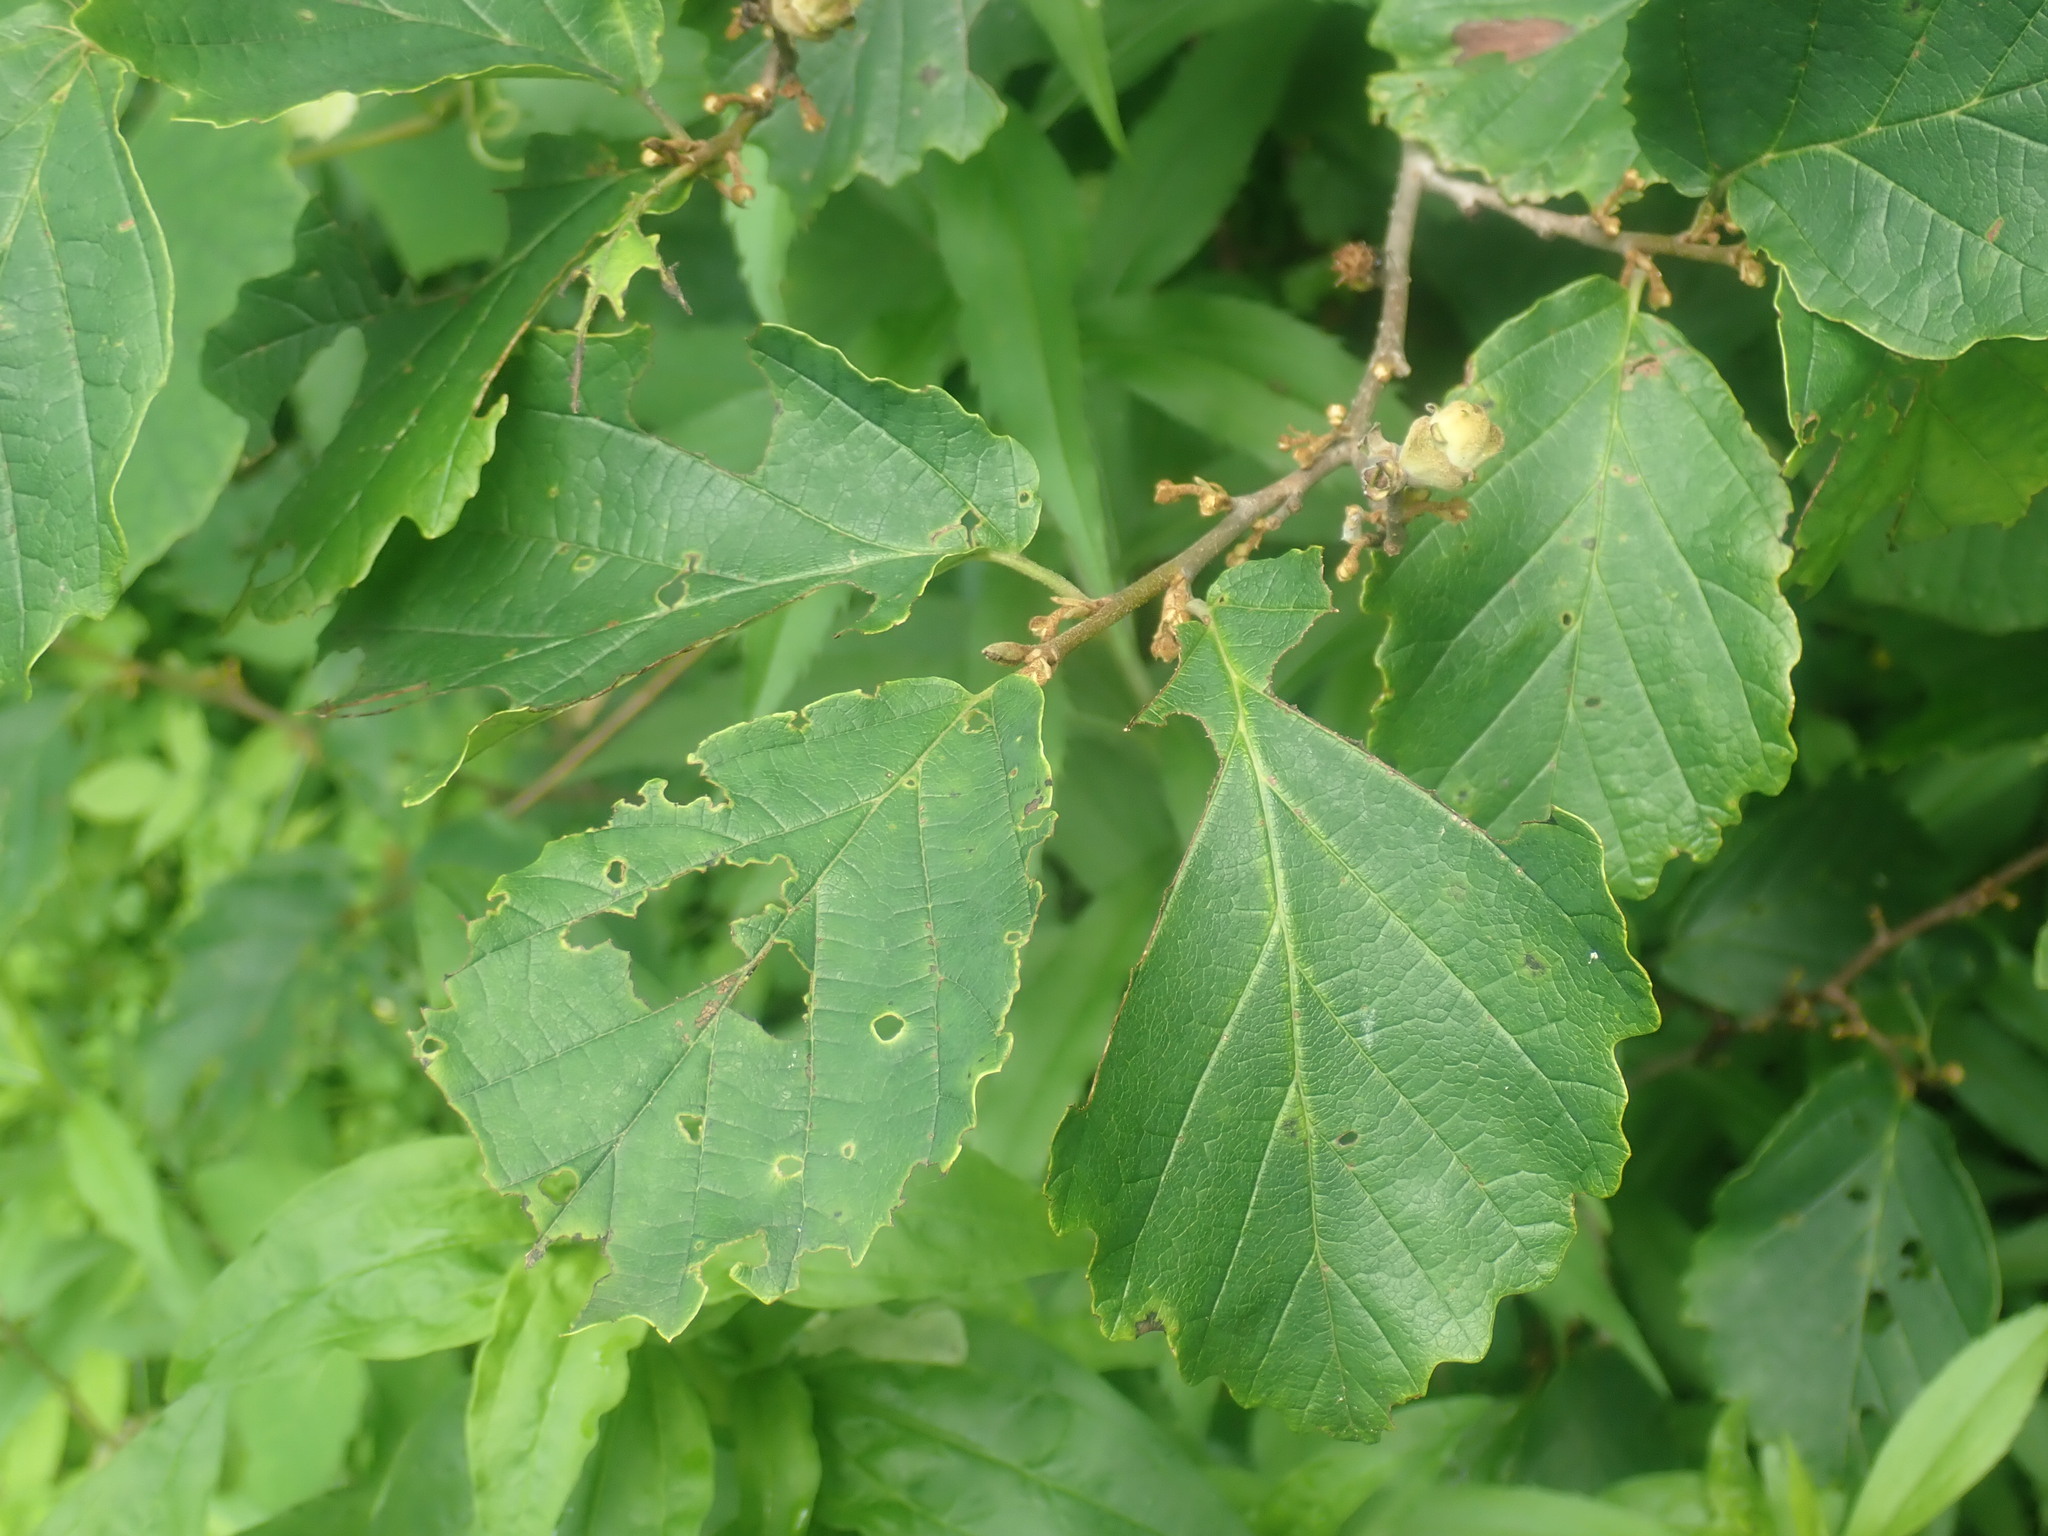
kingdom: Plantae
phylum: Tracheophyta
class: Magnoliopsida
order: Saxifragales
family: Hamamelidaceae
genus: Hamamelis
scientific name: Hamamelis virginiana
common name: Witch-hazel
